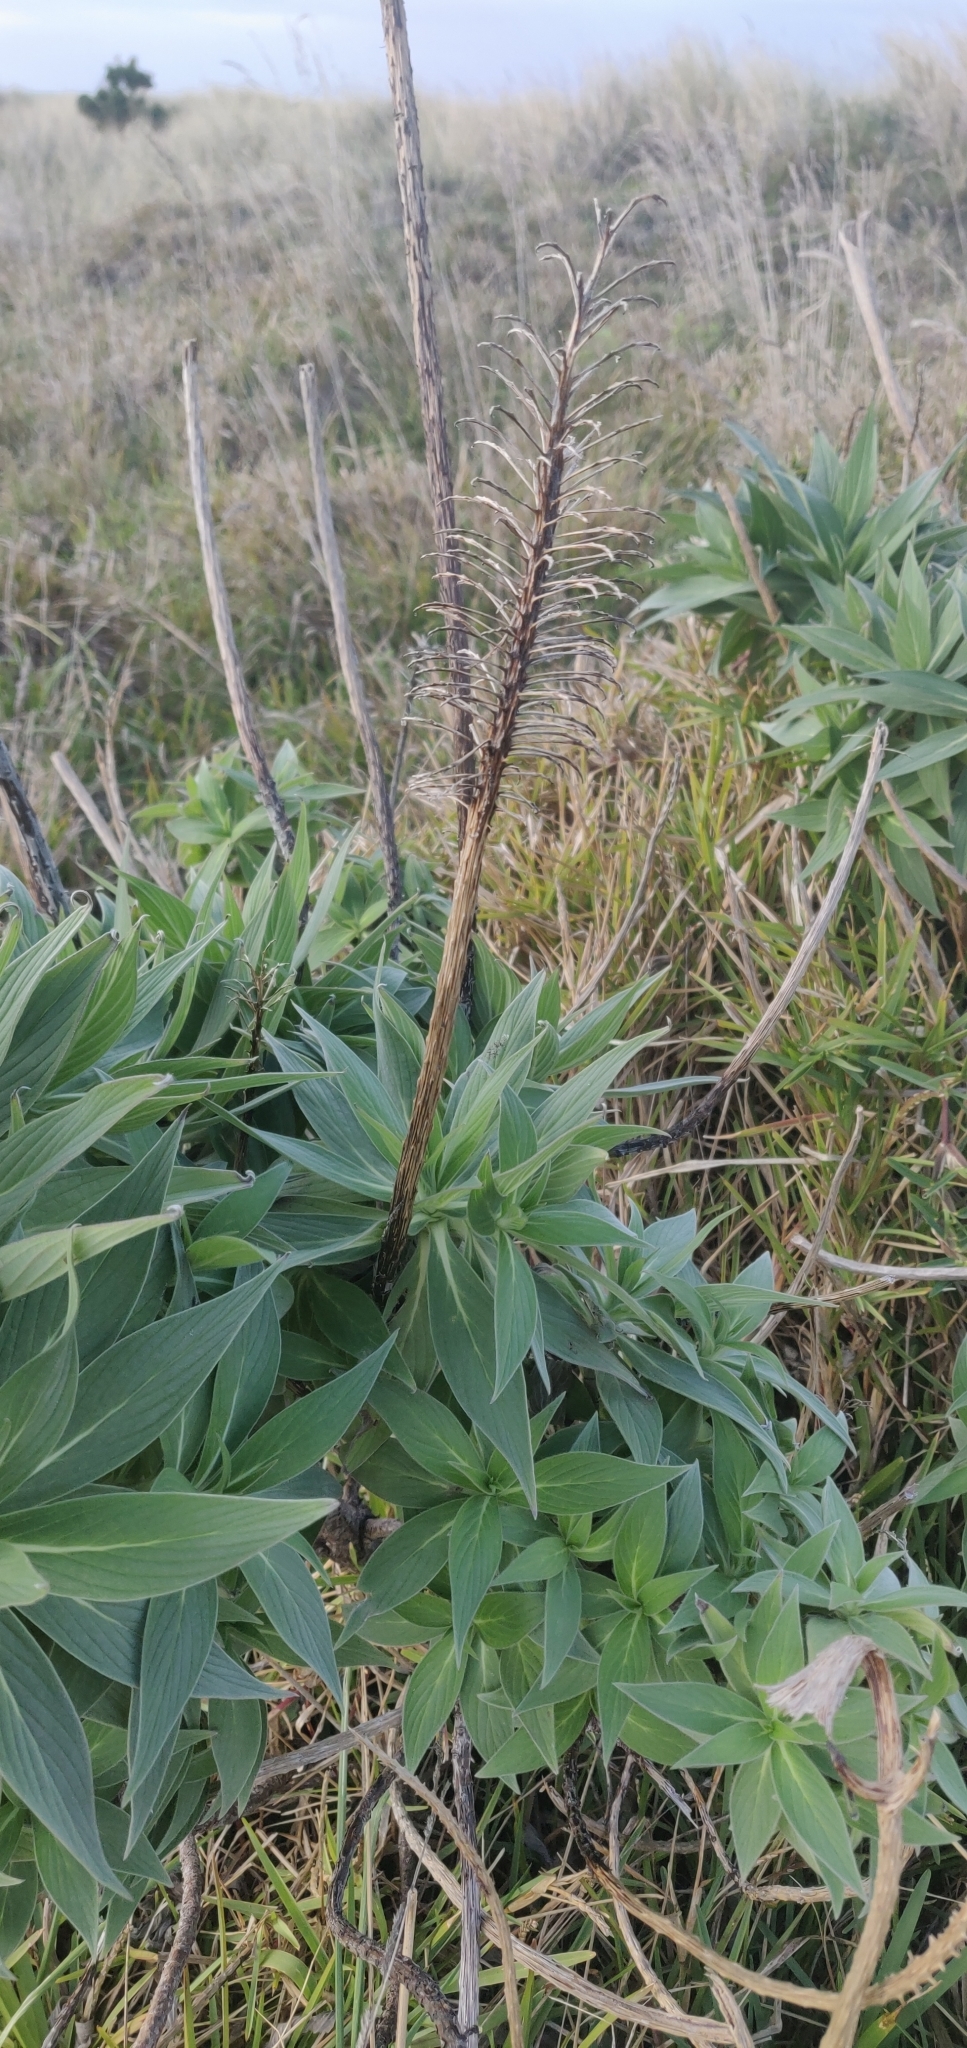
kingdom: Plantae
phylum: Tracheophyta
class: Magnoliopsida
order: Boraginales
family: Boraginaceae
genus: Echium
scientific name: Echium candicans
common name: Pride of madeira
